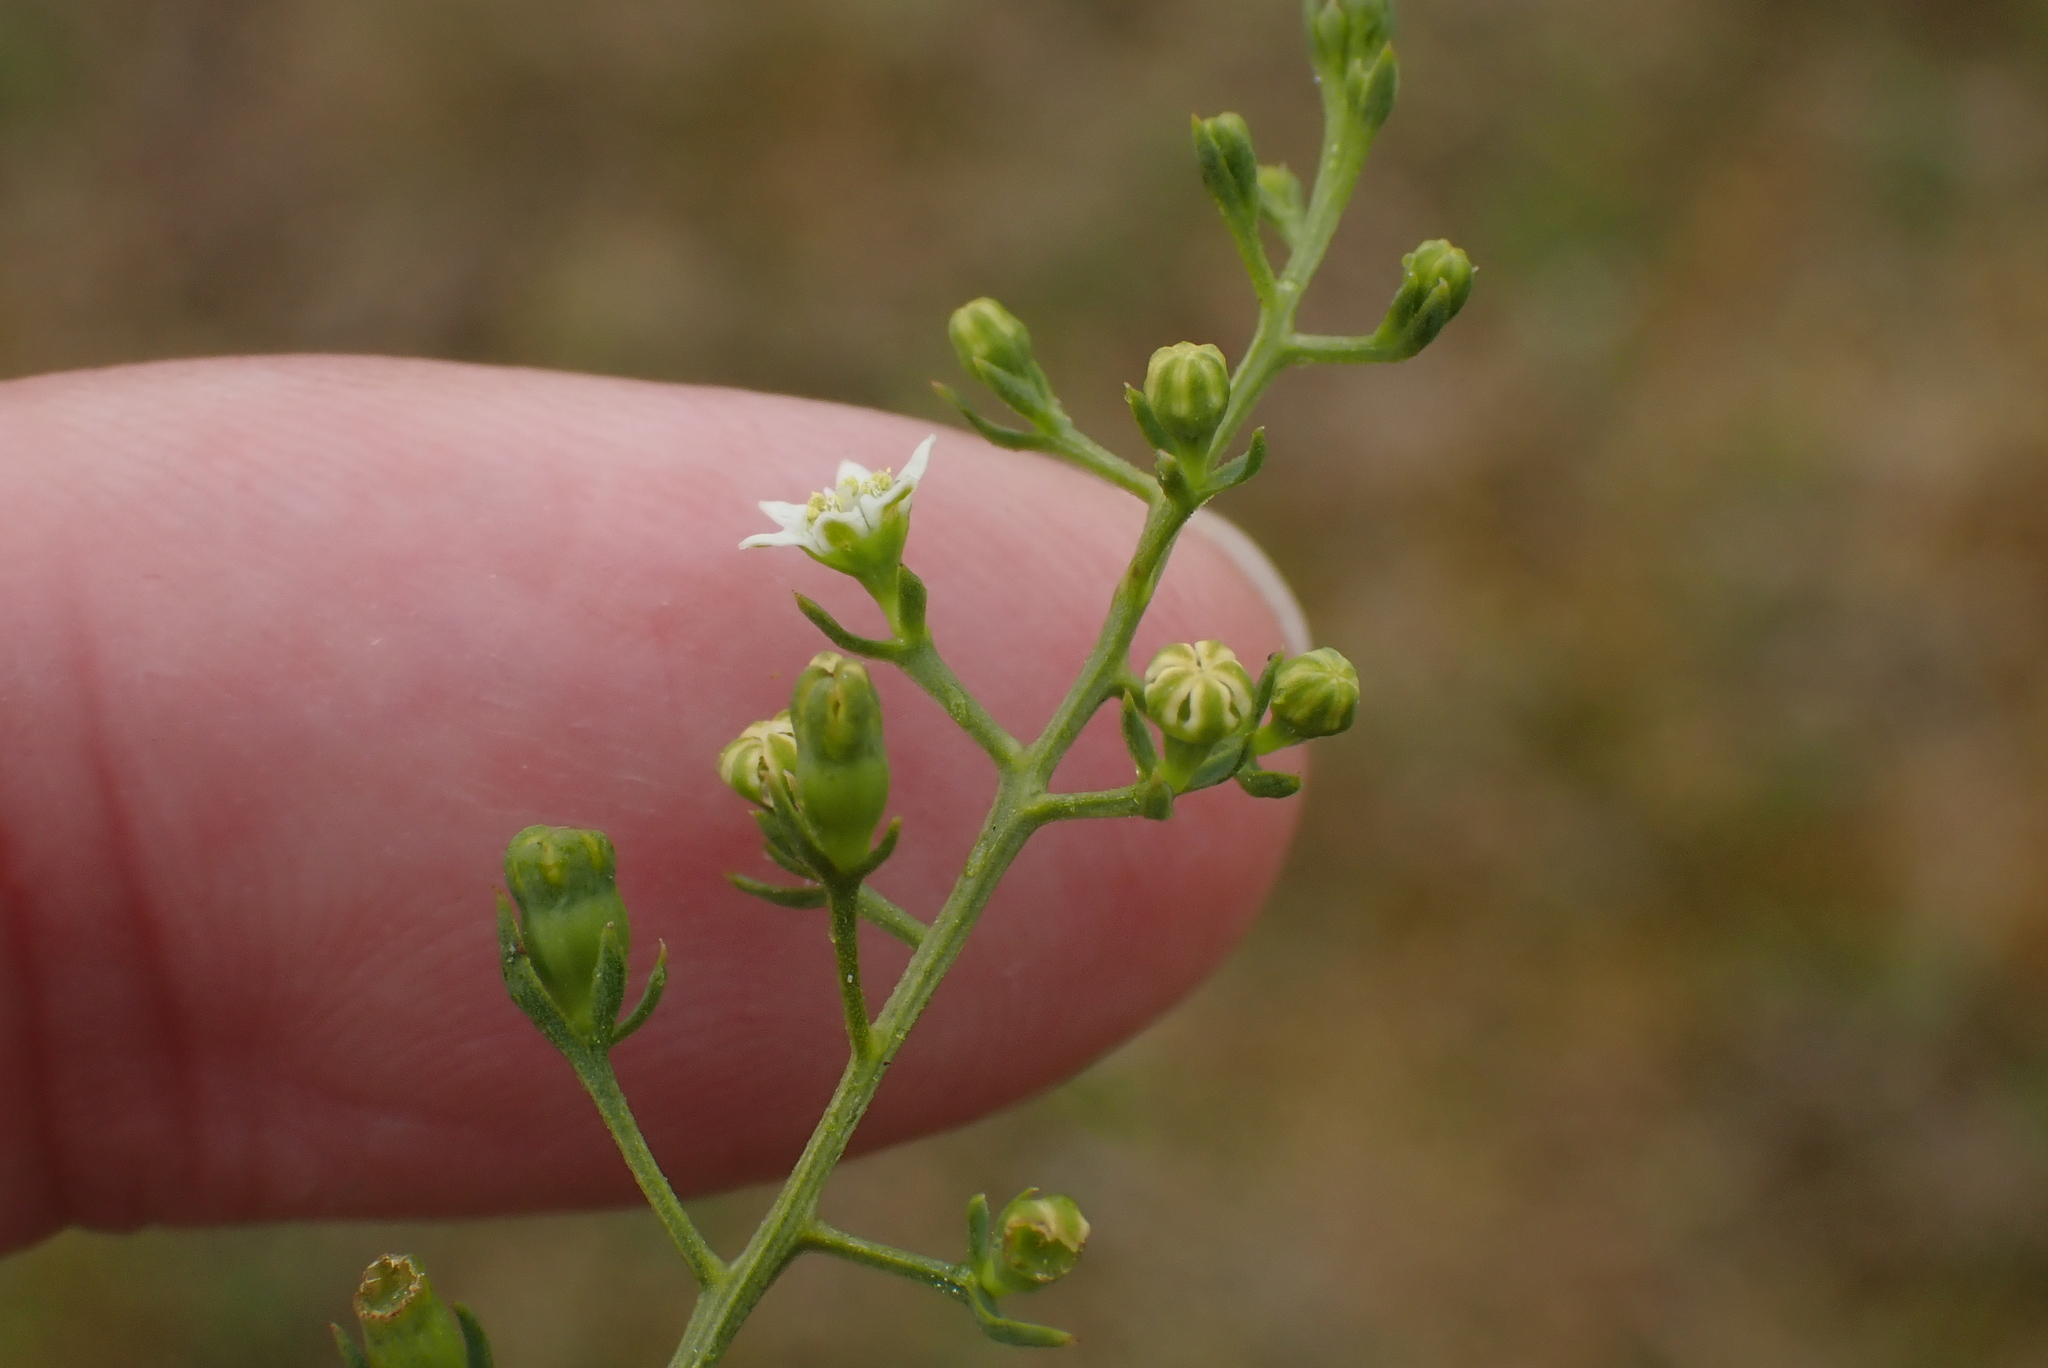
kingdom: Plantae
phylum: Tracheophyta
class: Magnoliopsida
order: Santalales
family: Thesiaceae
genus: Thesium
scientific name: Thesium humifusum
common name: Bastard-toadflax
